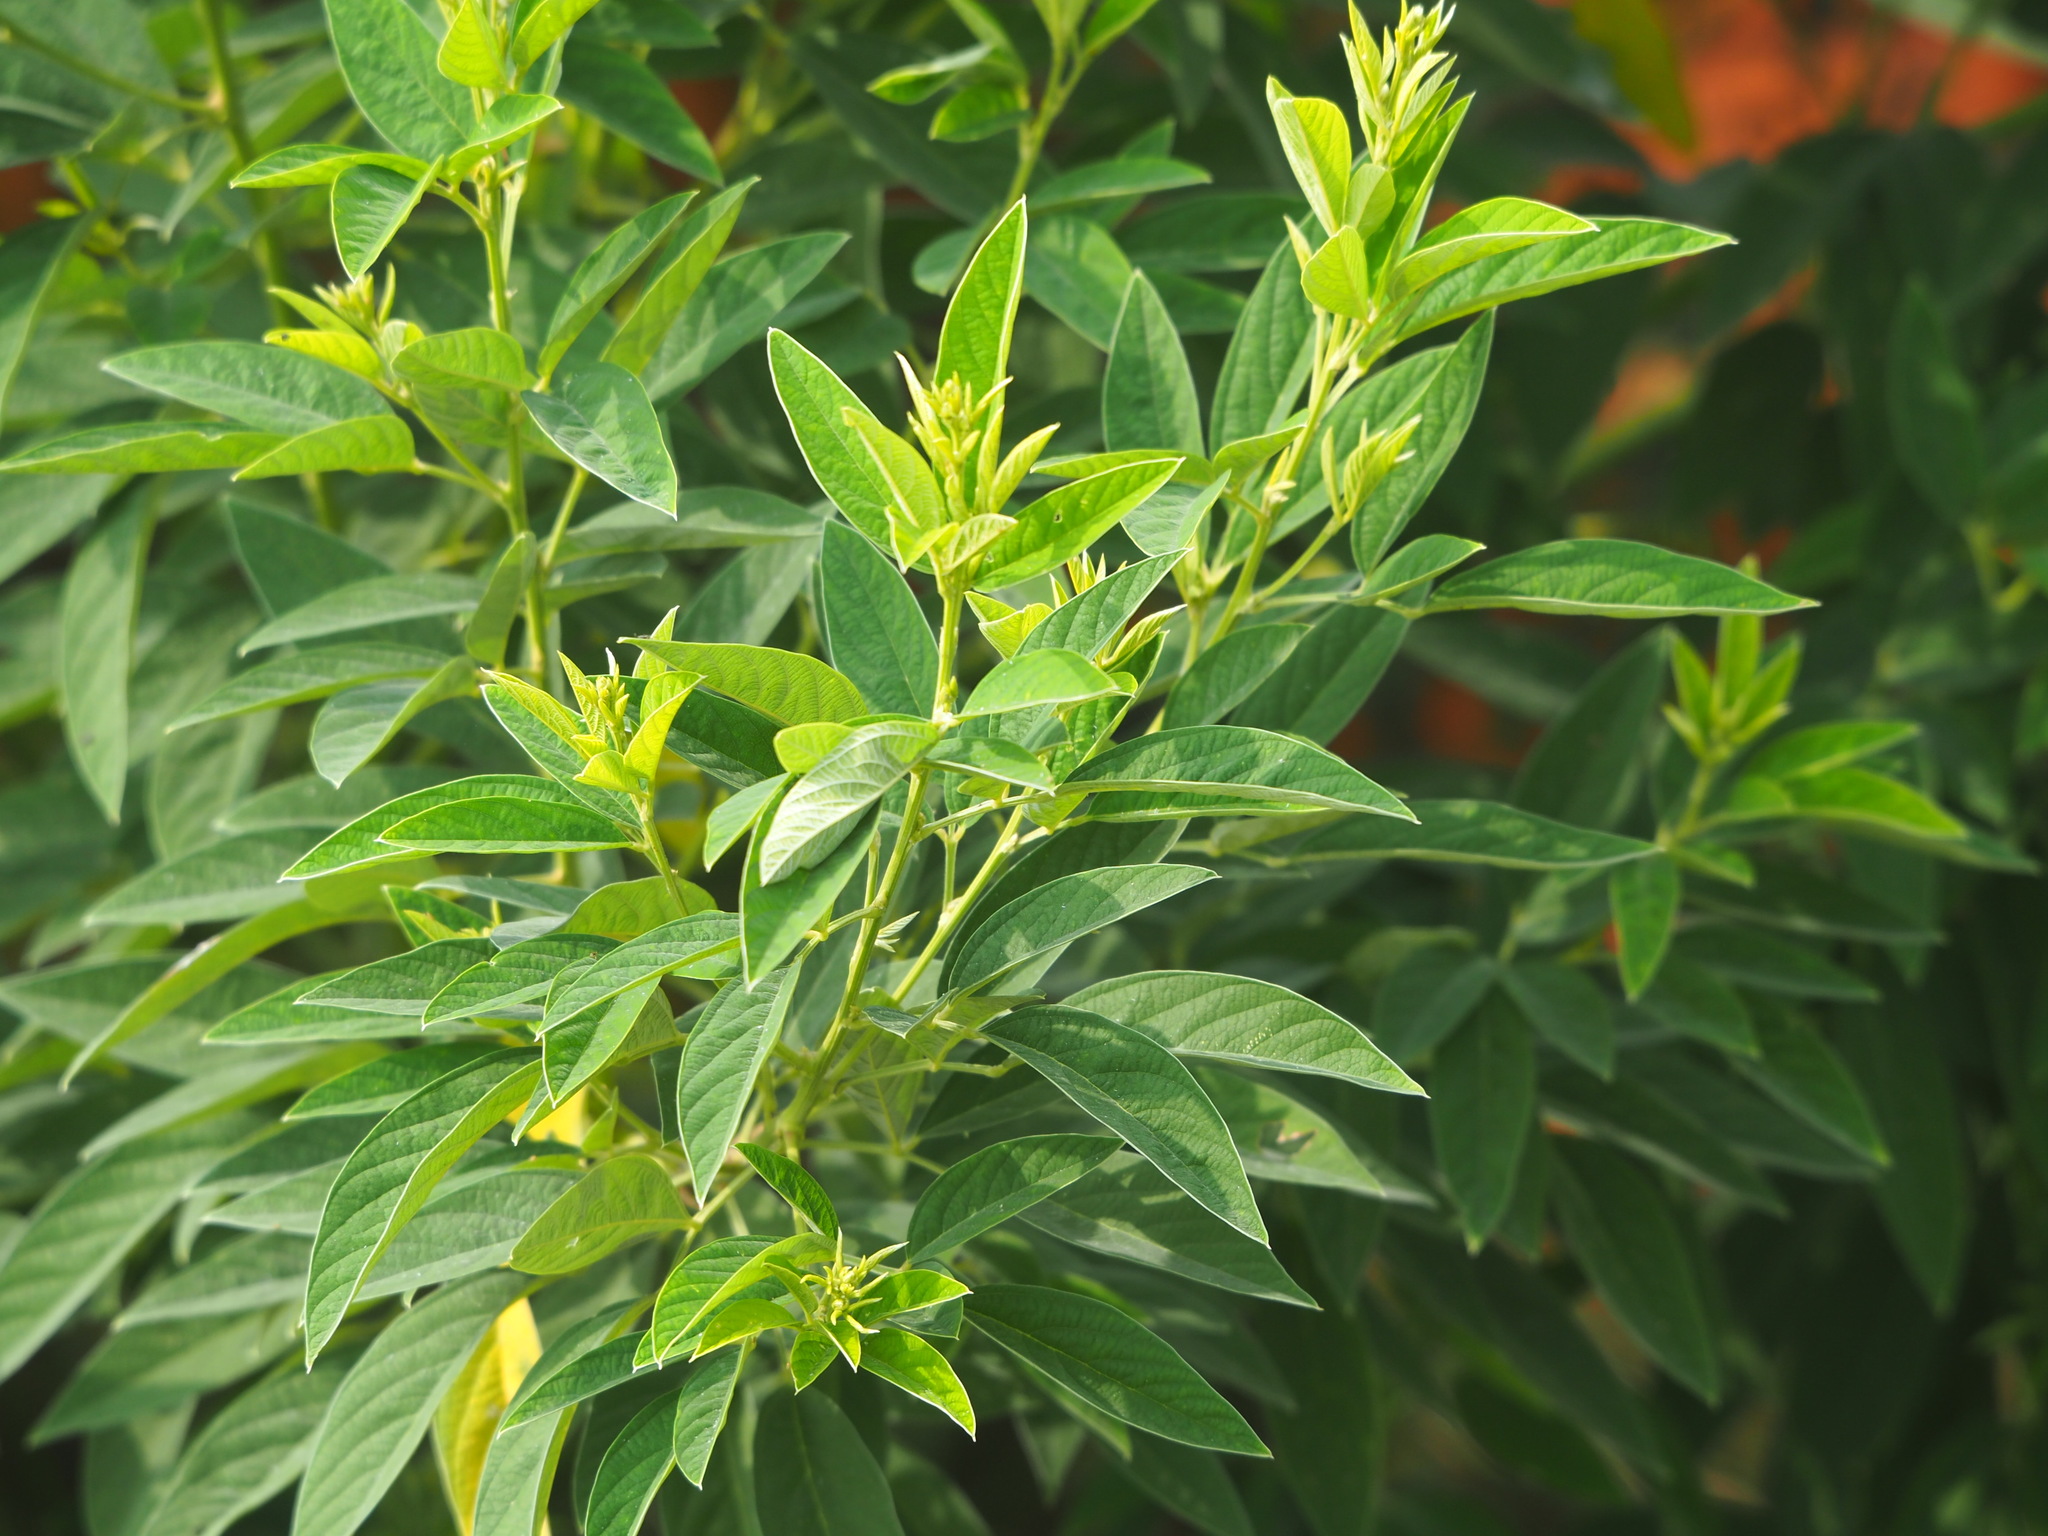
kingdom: Plantae
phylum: Tracheophyta
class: Magnoliopsida
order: Fabales
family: Fabaceae
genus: Cajanus
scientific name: Cajanus cajan
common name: Pigeonpea
